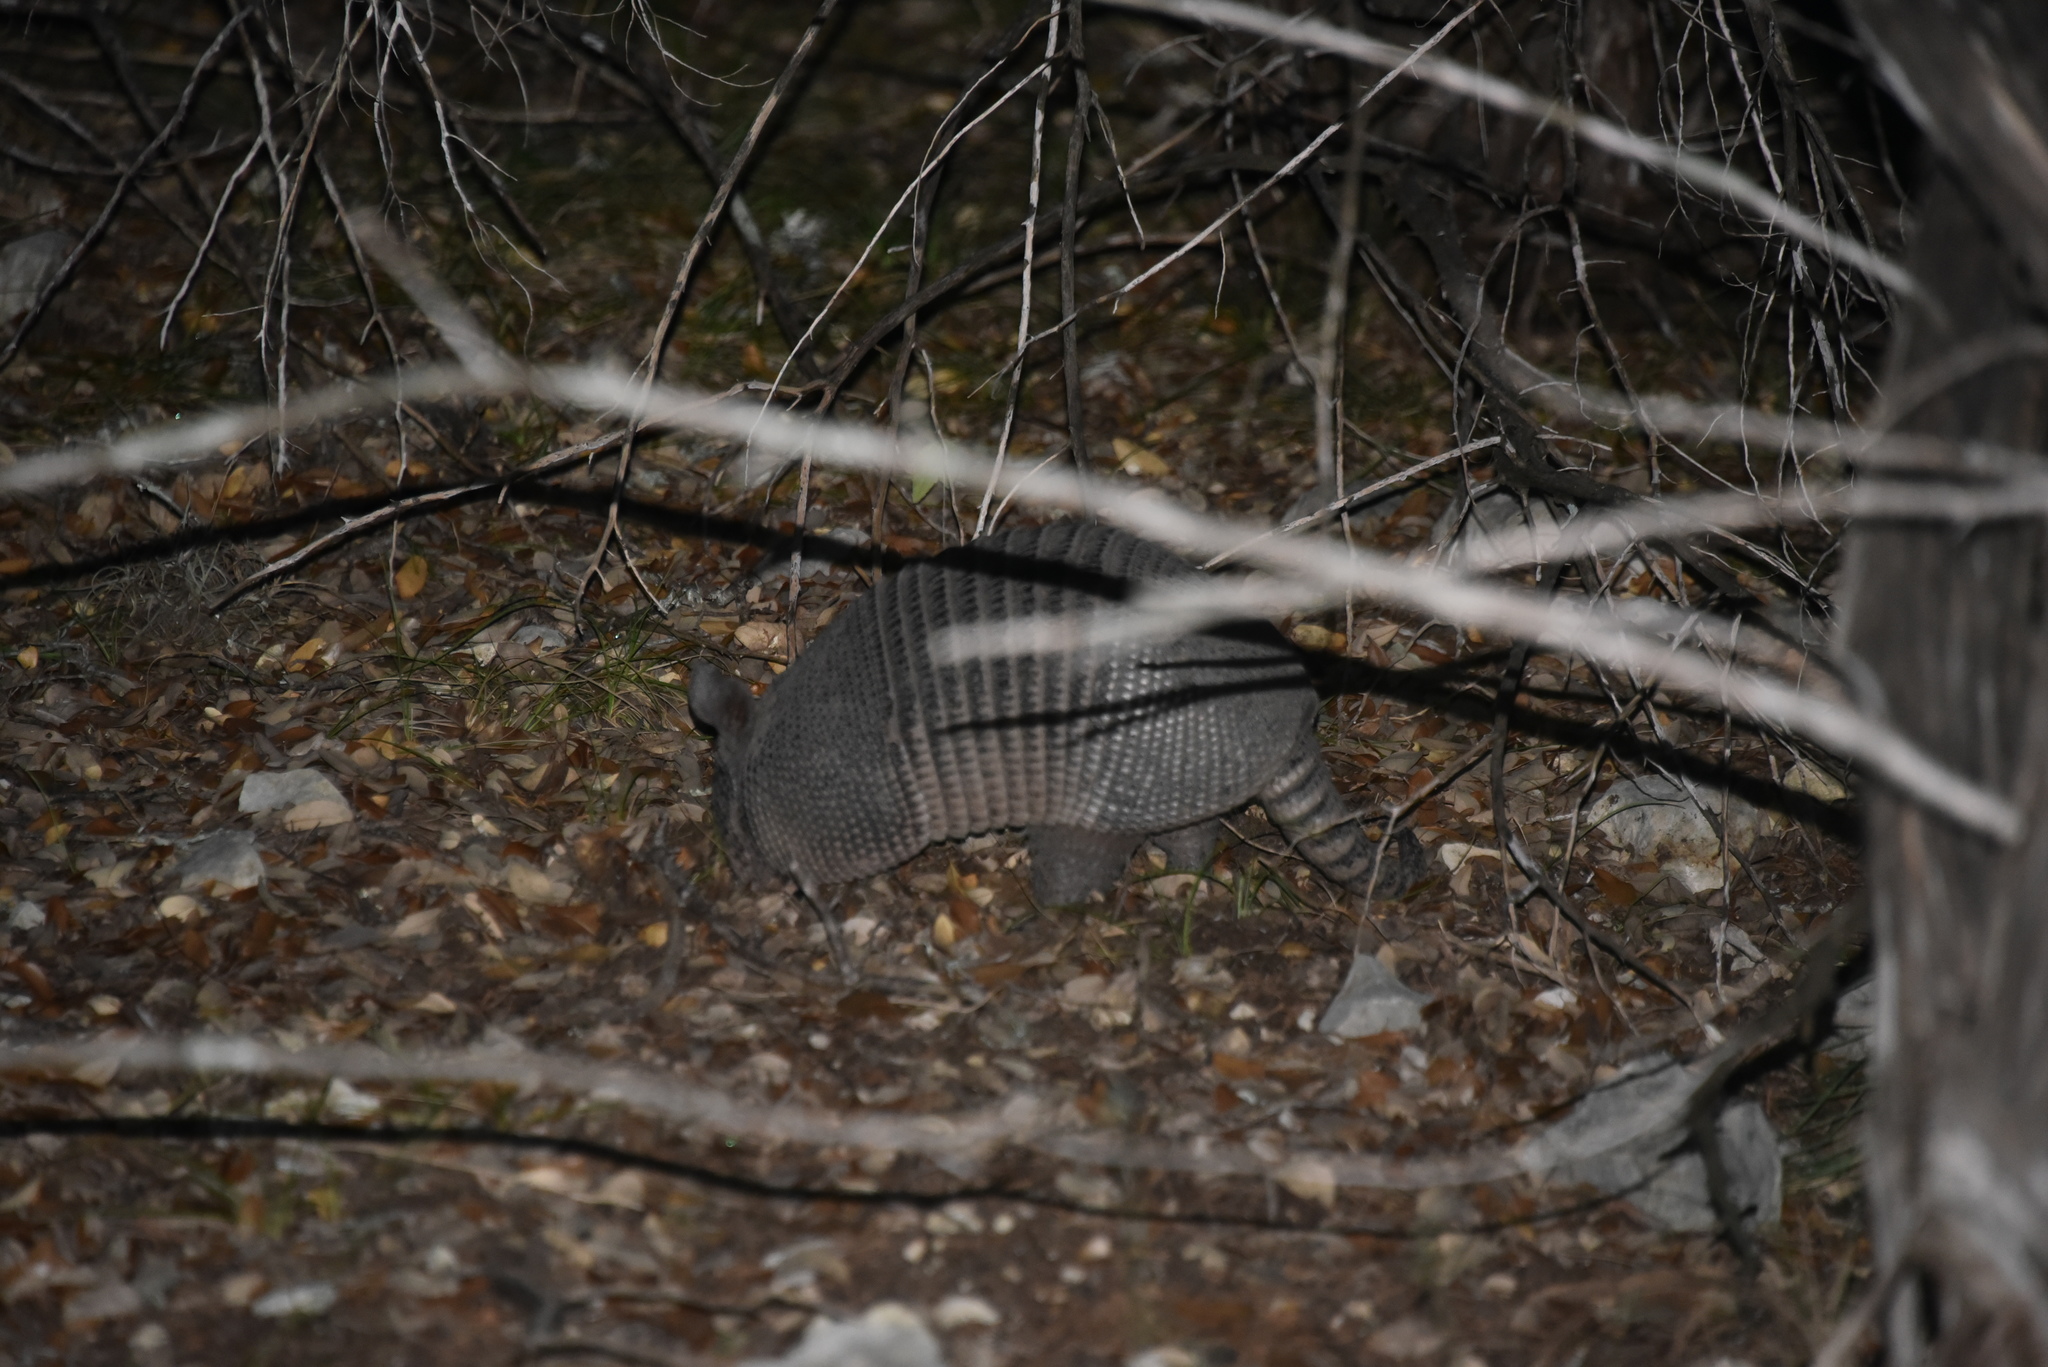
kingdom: Animalia
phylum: Chordata
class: Mammalia
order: Cingulata
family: Dasypodidae
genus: Dasypus
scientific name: Dasypus novemcinctus
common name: Nine-banded armadillo
